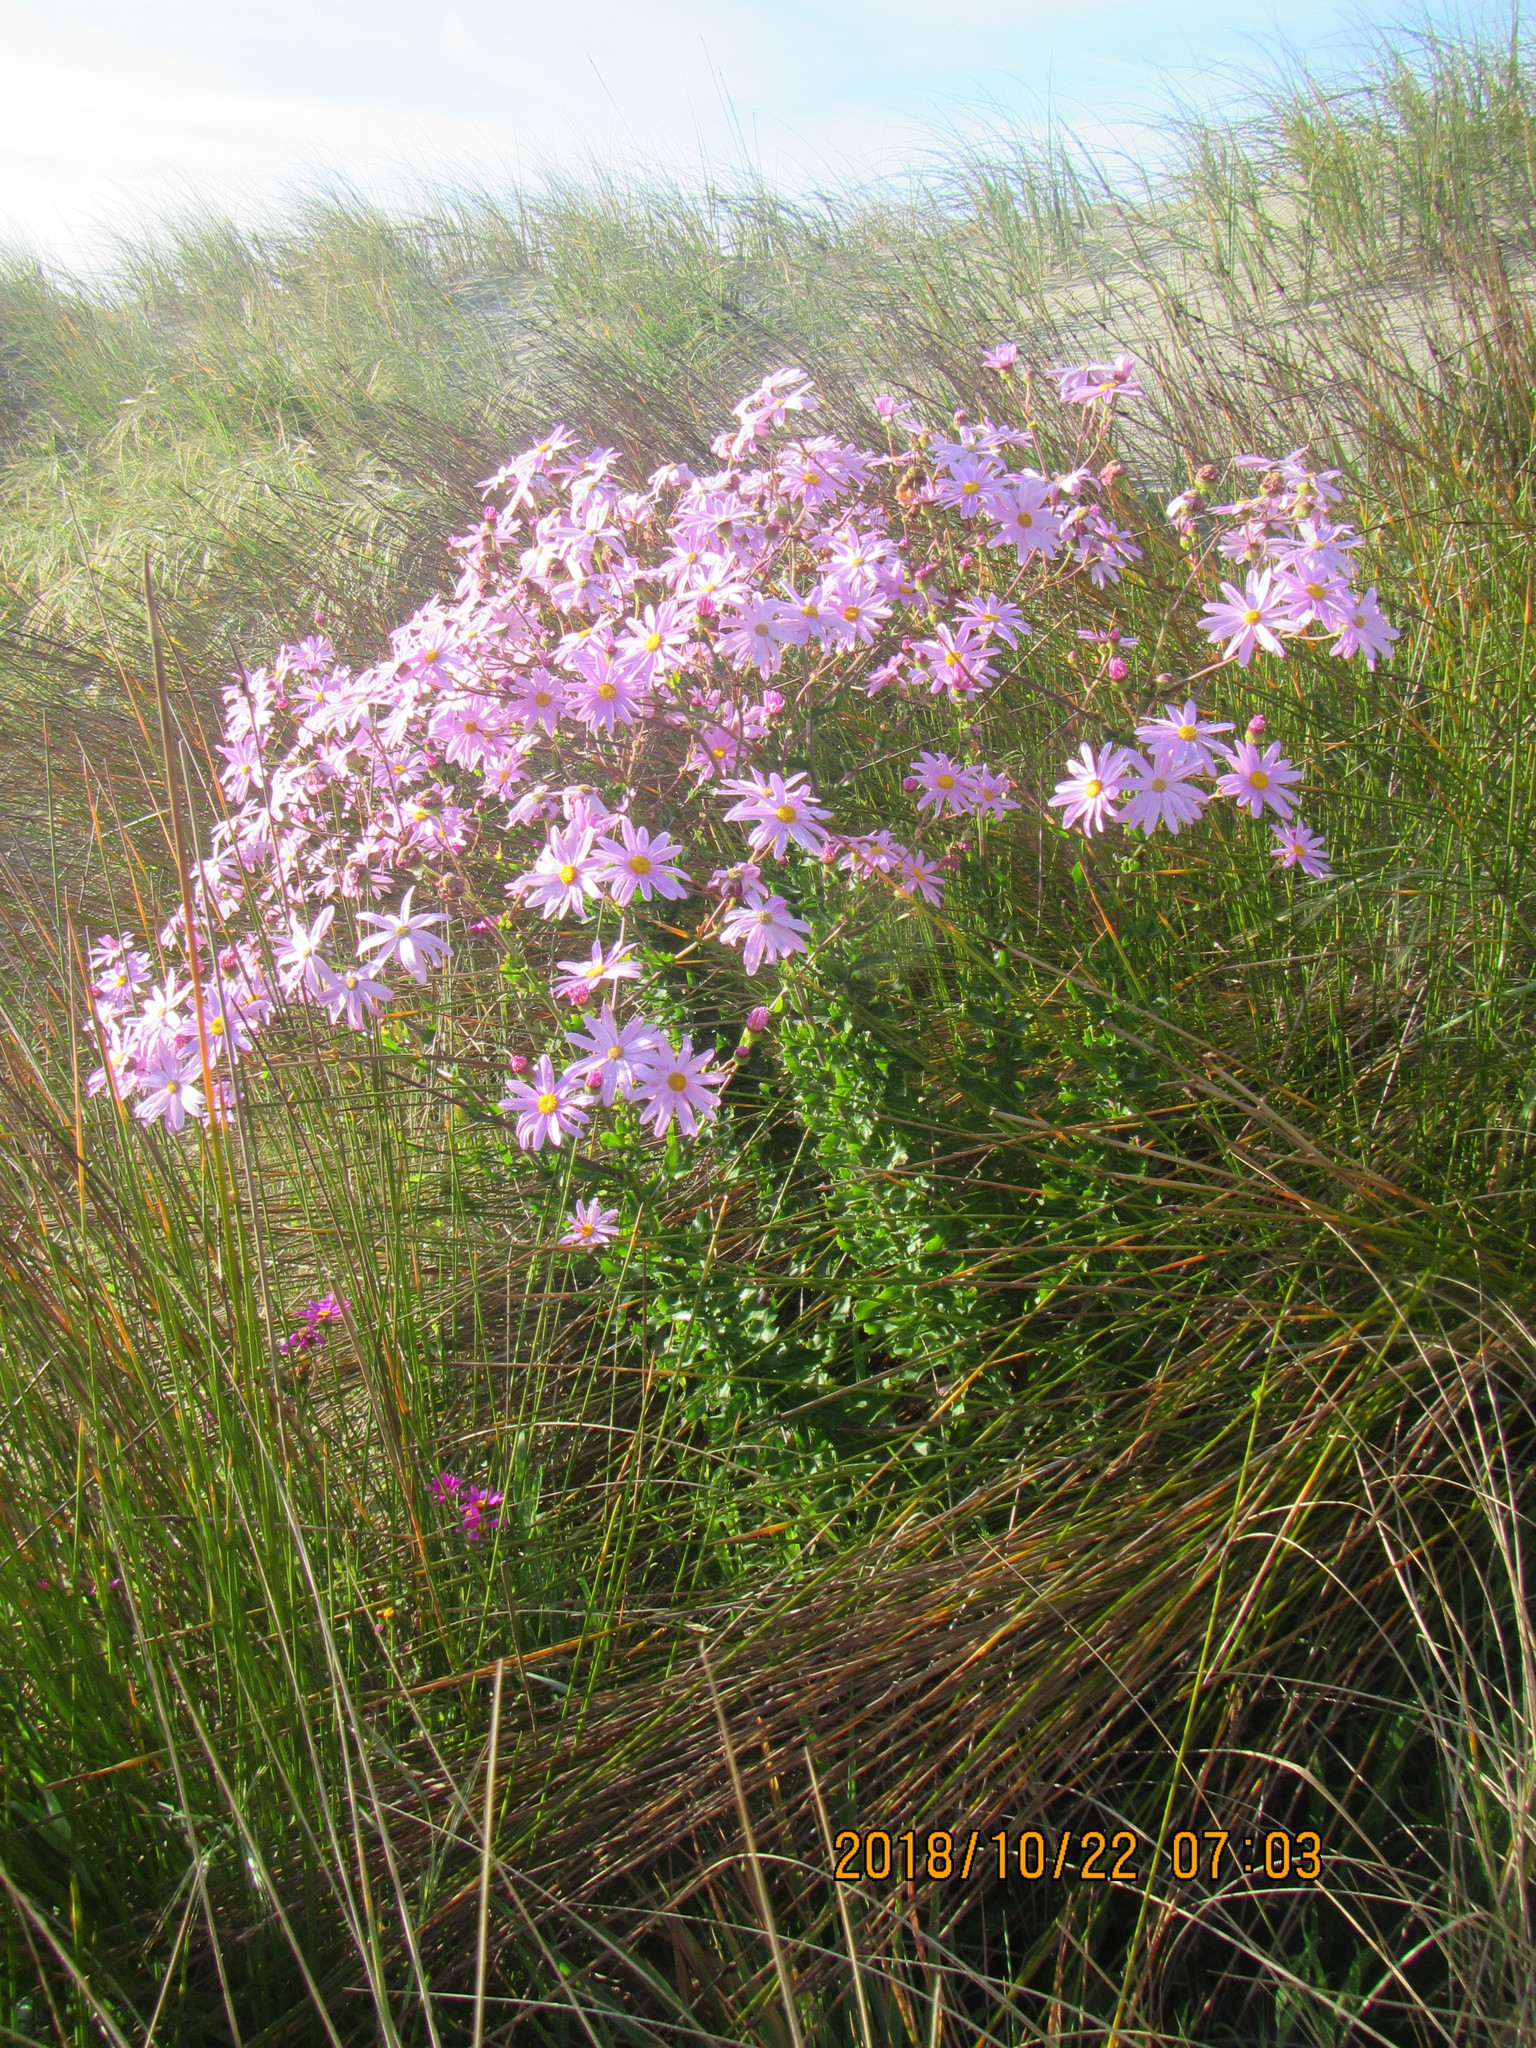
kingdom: Plantae
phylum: Tracheophyta
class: Magnoliopsida
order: Asterales
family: Asteraceae
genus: Senecio
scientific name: Senecio glastifolius
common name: Woad-leaved ragwort
